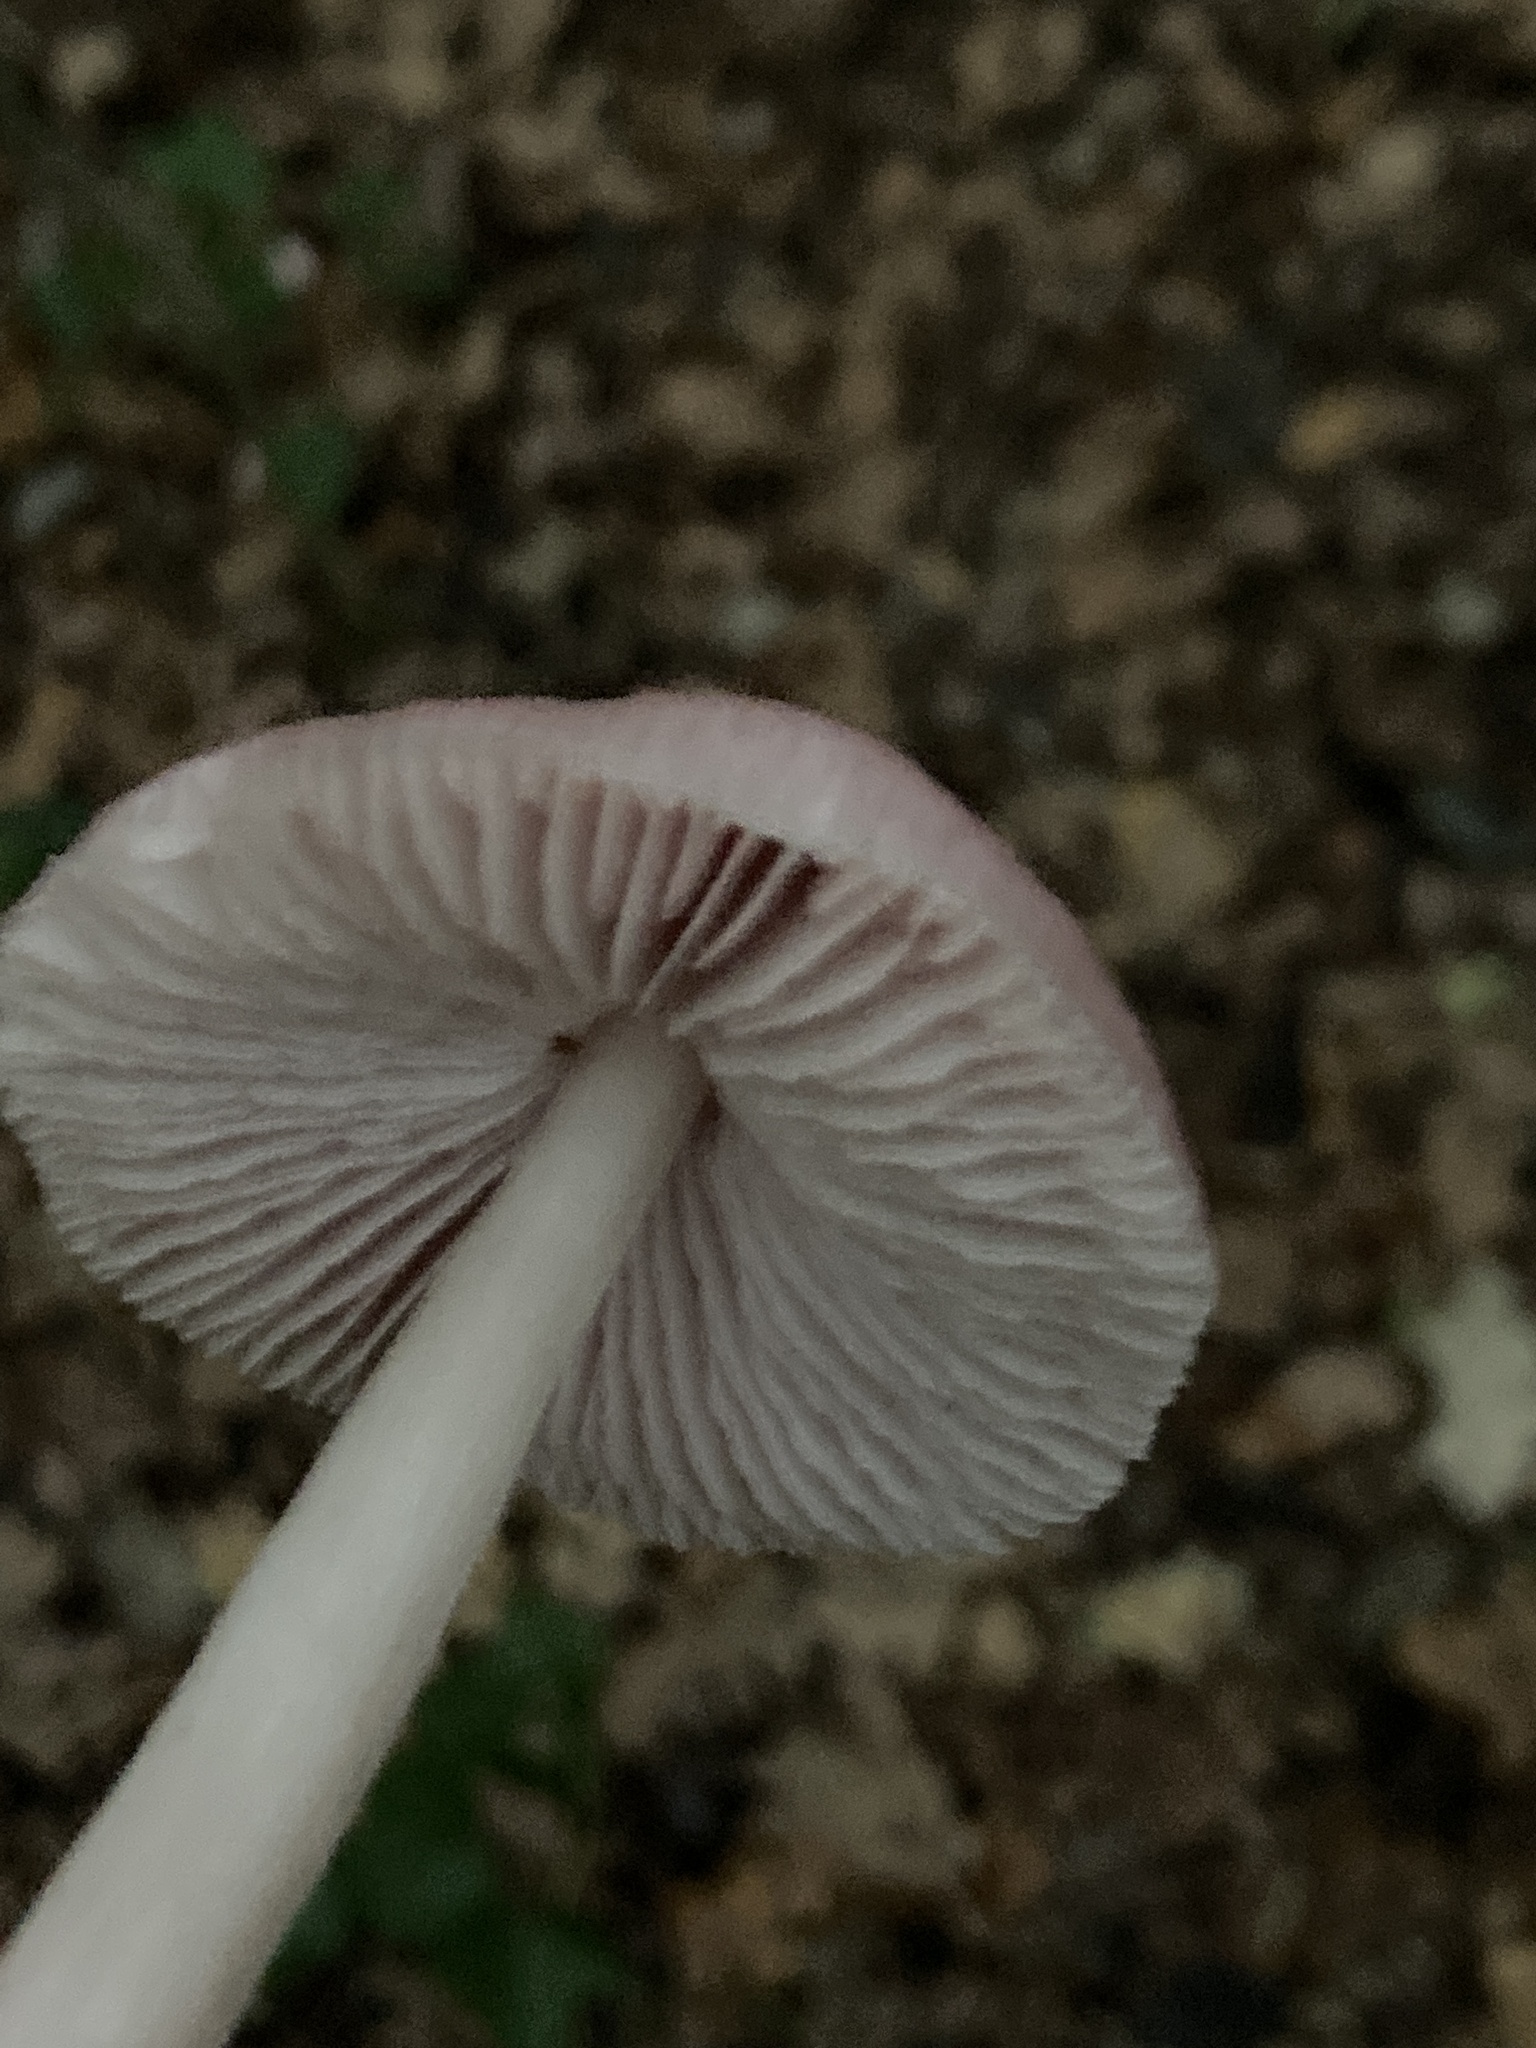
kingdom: Fungi
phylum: Basidiomycota
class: Agaricomycetes
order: Agaricales
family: Mycenaceae
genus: Mycena
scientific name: Mycena rosea
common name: Rosy bonnet
